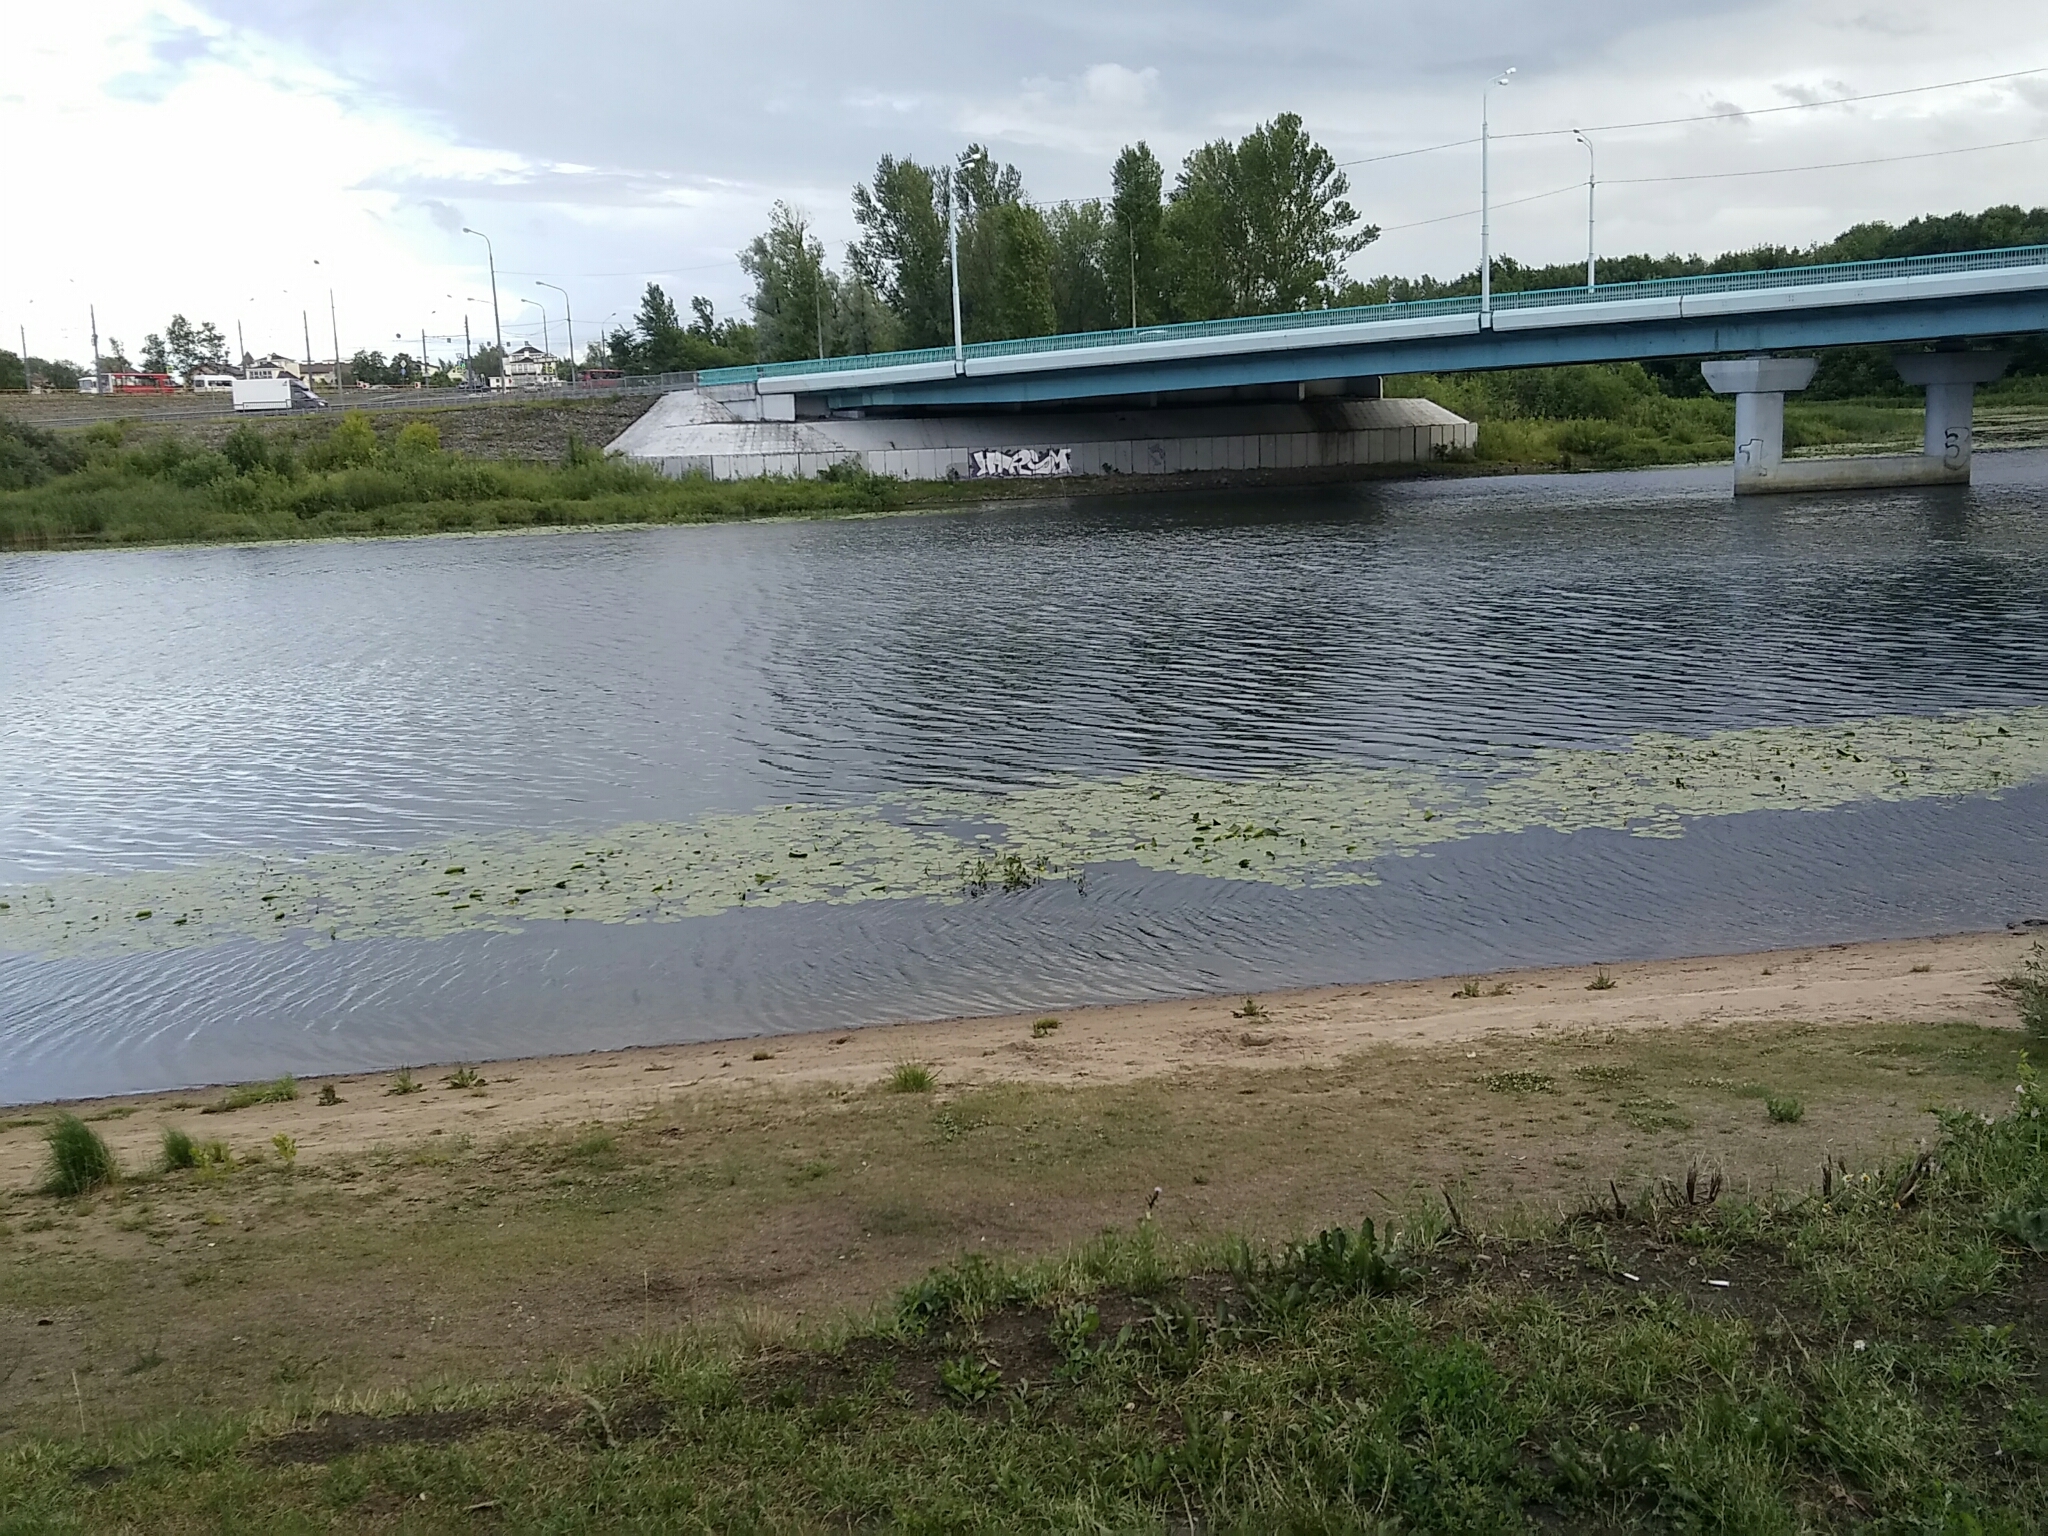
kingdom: Plantae
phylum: Tracheophyta
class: Magnoliopsida
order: Nymphaeales
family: Nymphaeaceae
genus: Nuphar
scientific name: Nuphar lutea
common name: Yellow water-lily
